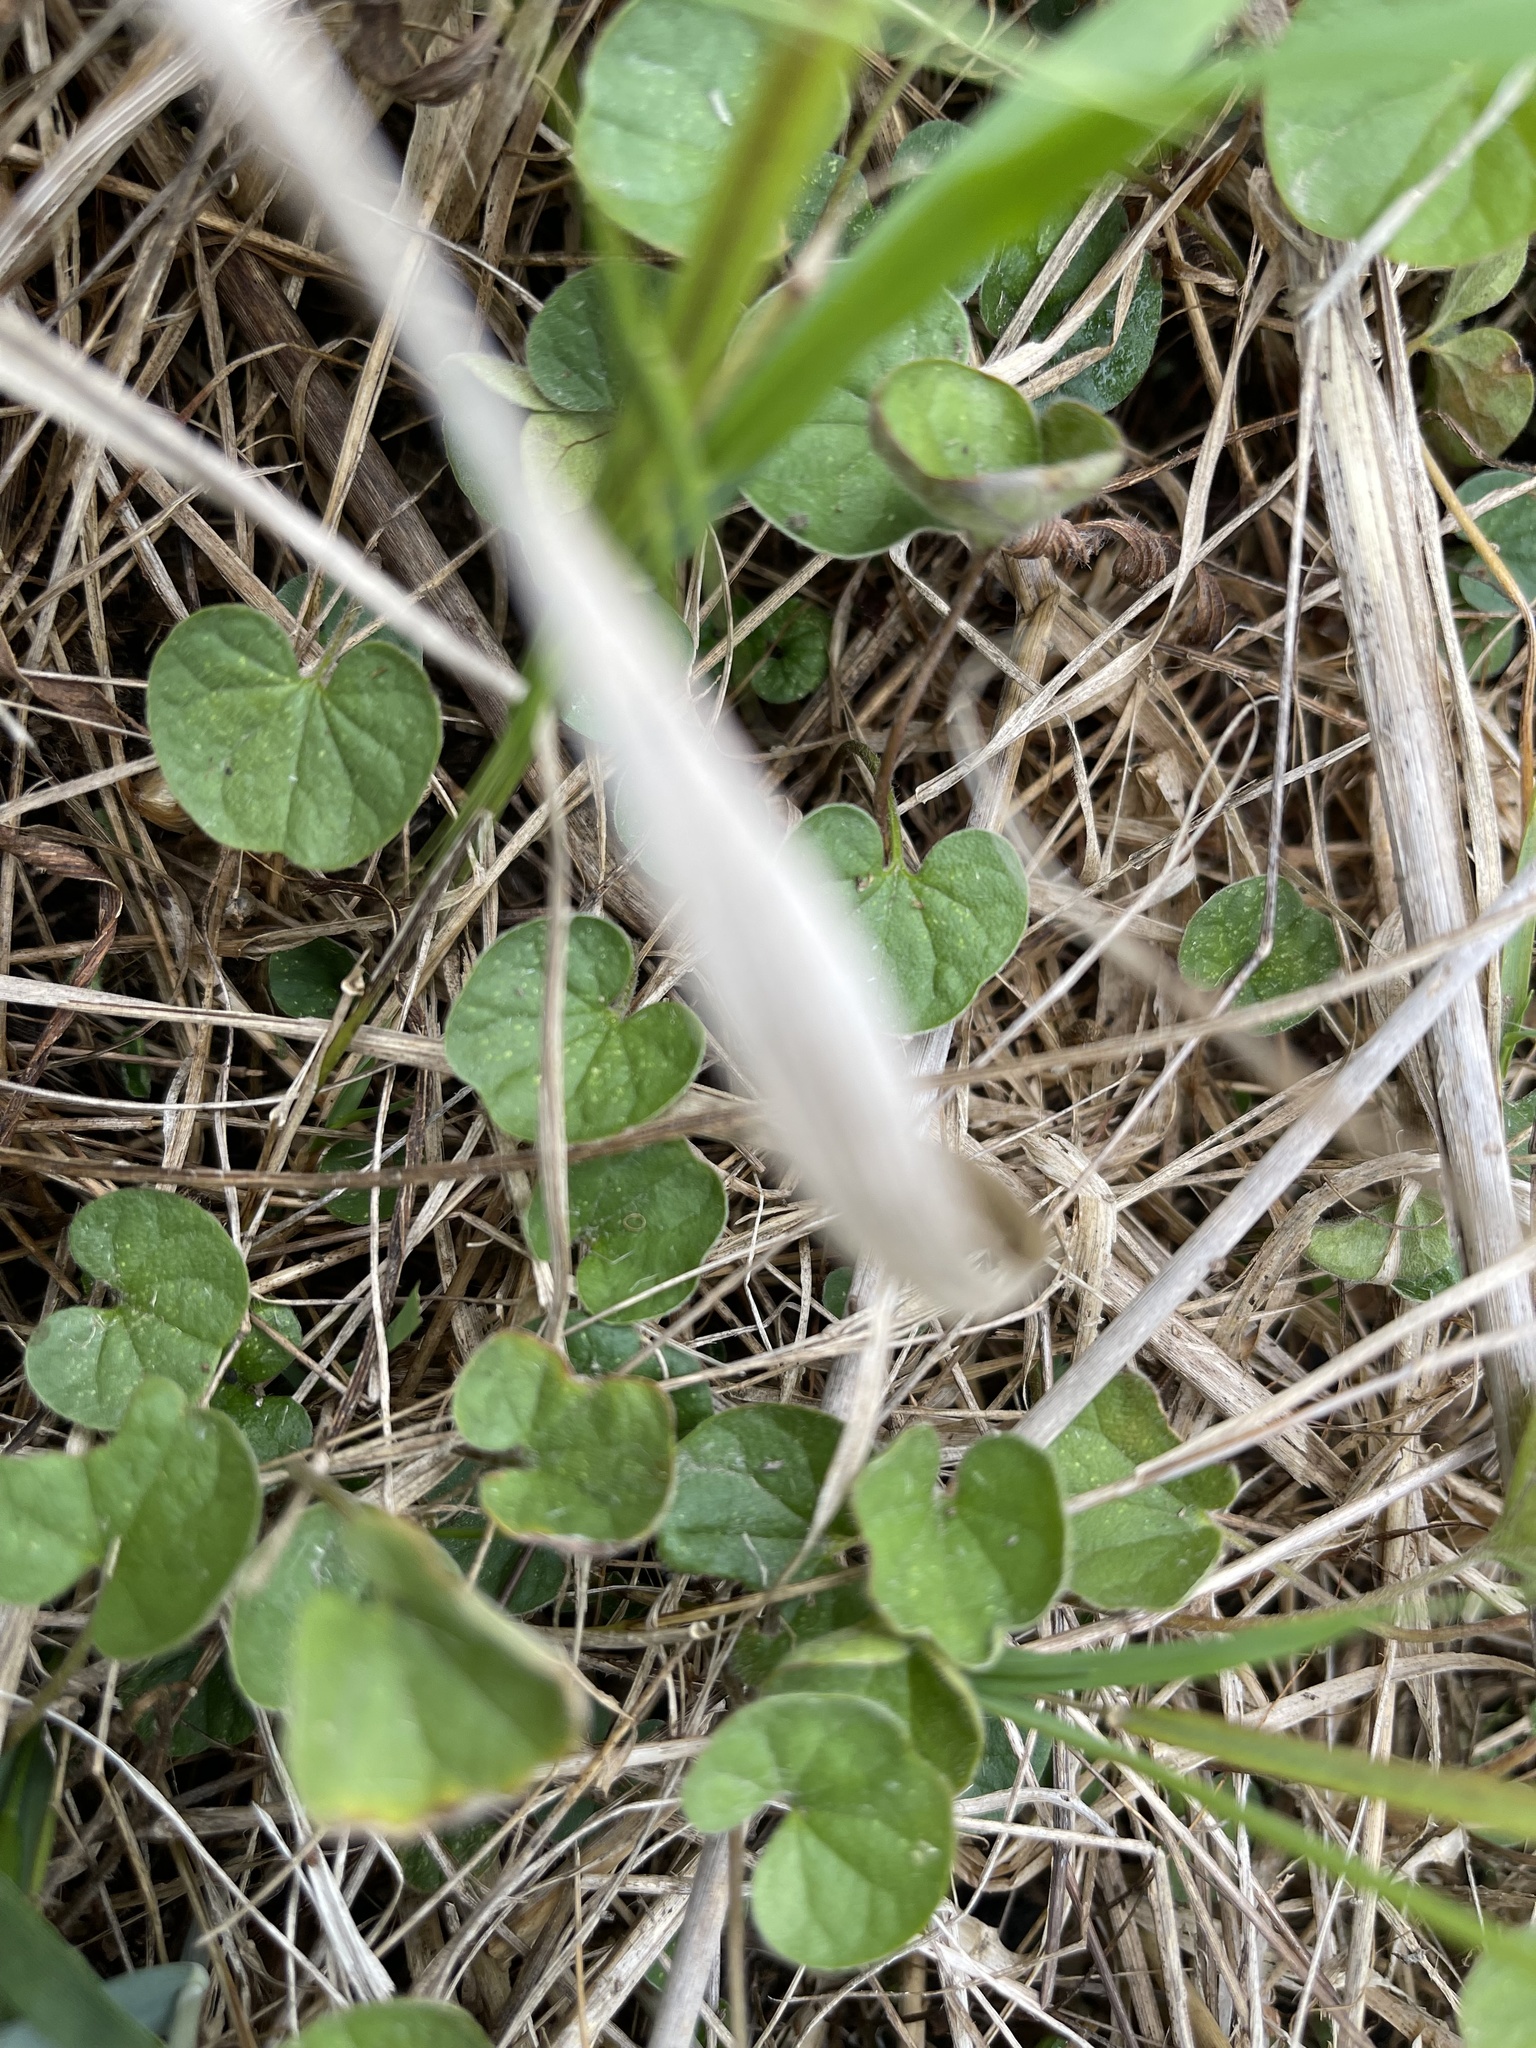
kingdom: Plantae
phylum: Tracheophyta
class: Magnoliopsida
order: Solanales
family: Convolvulaceae
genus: Dichondra
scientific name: Dichondra repens
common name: Kidneyweed
